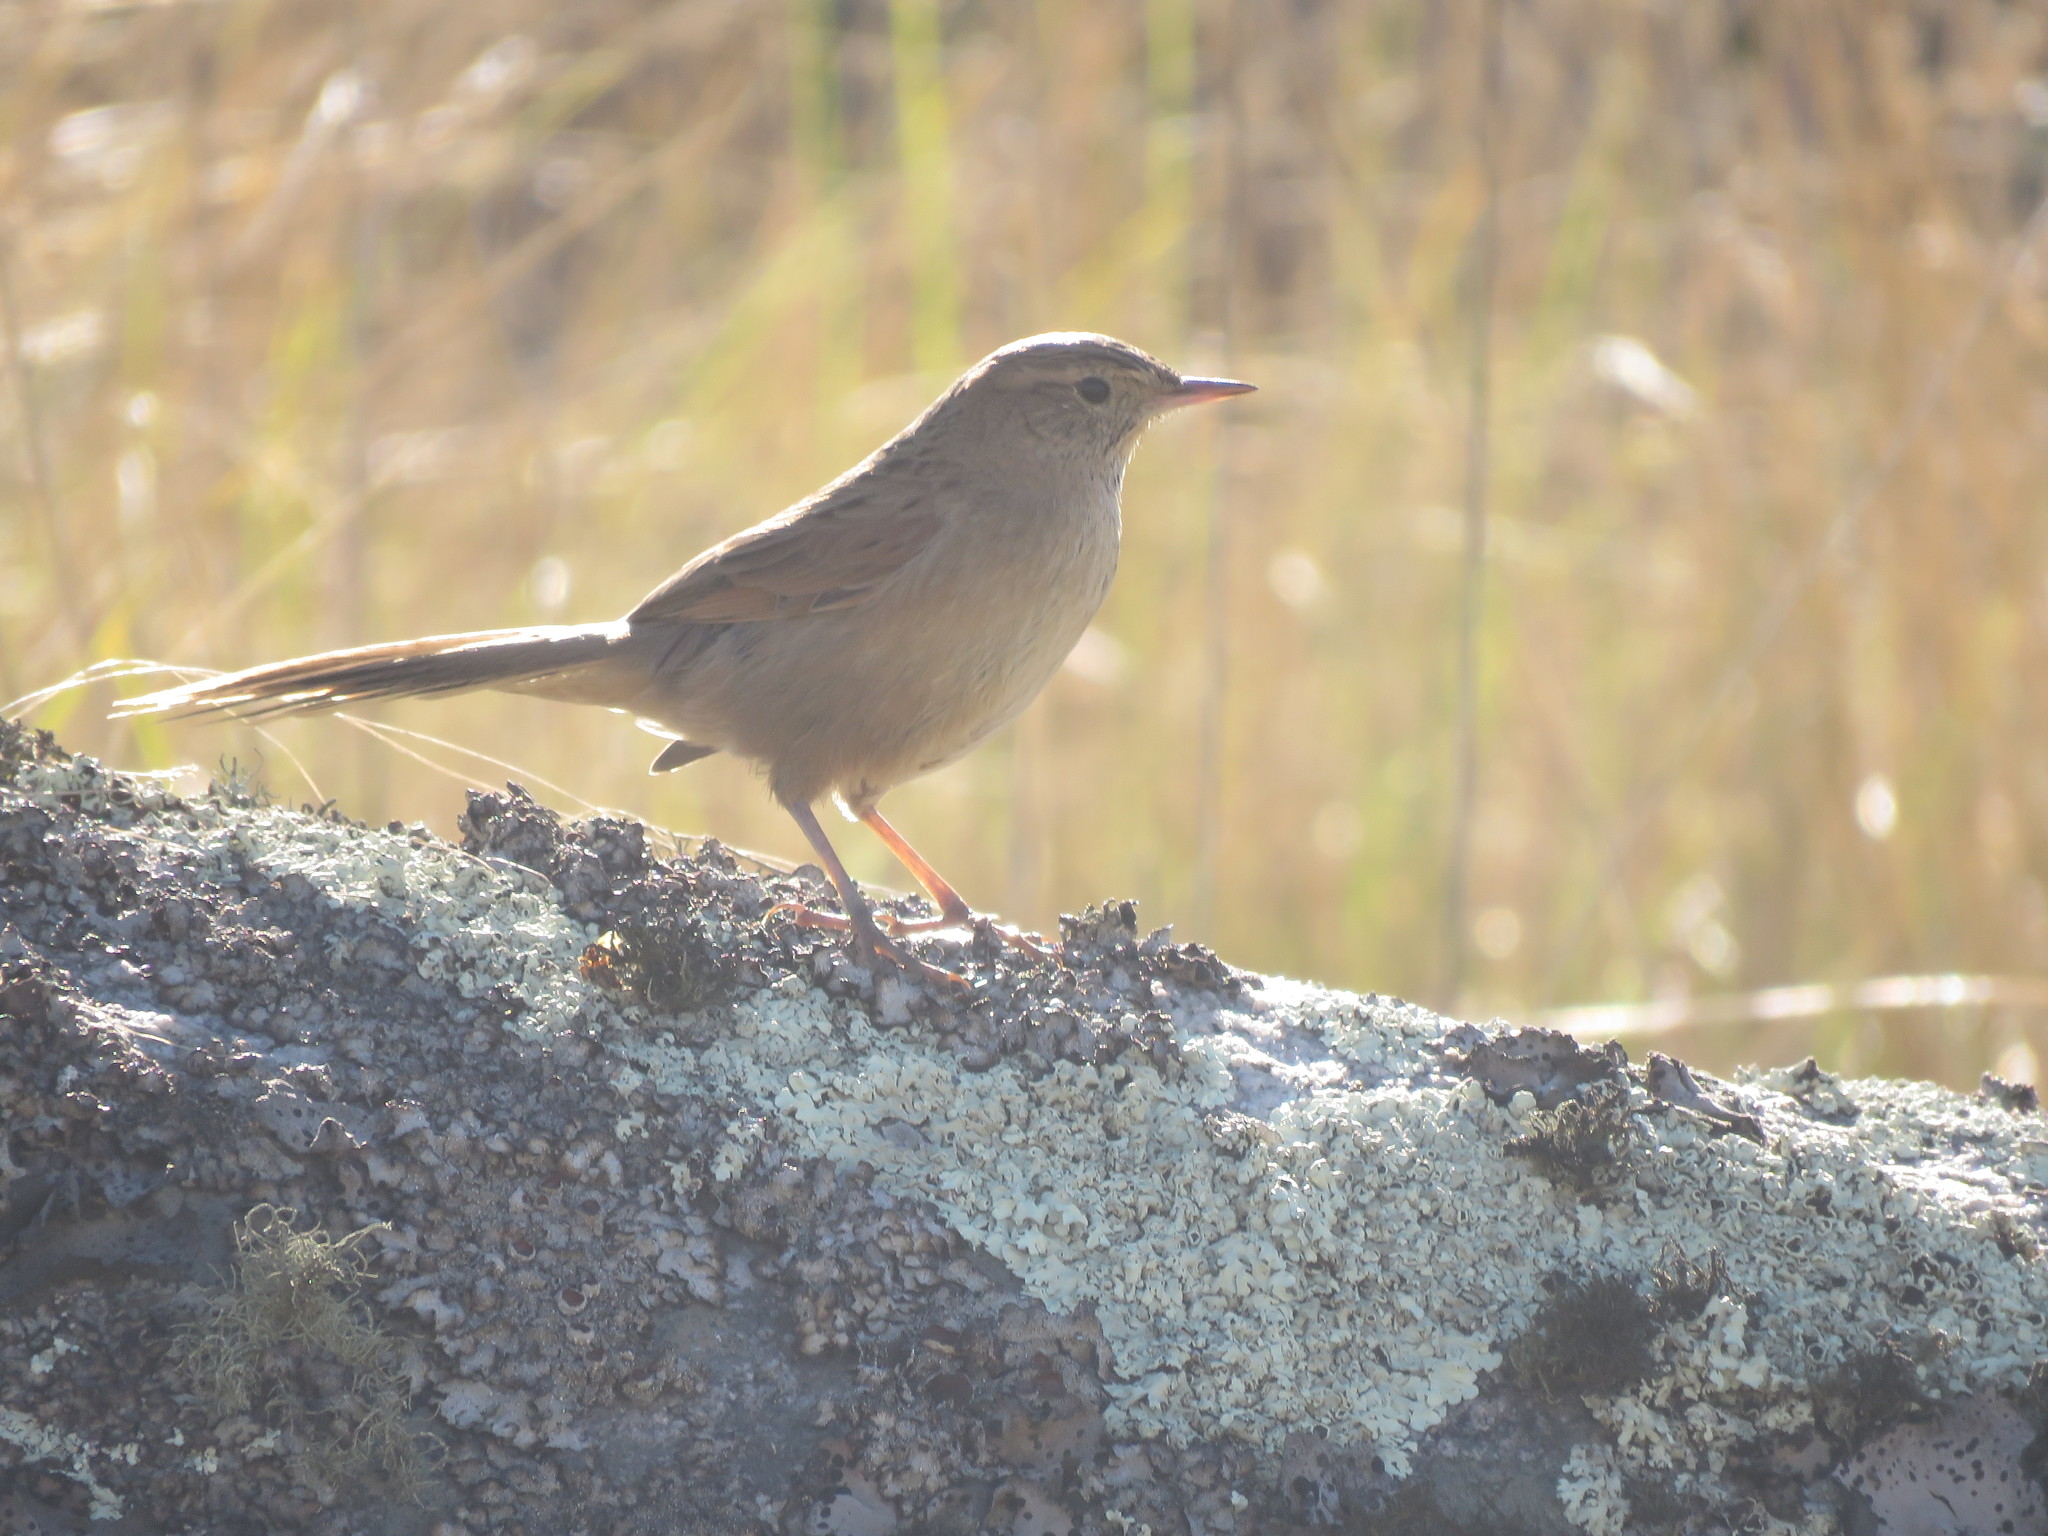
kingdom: Animalia
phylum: Chordata
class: Aves
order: Passeriformes
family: Furnariidae
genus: Asthenes
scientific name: Asthenes wyatti
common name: Streak-backed canastero
